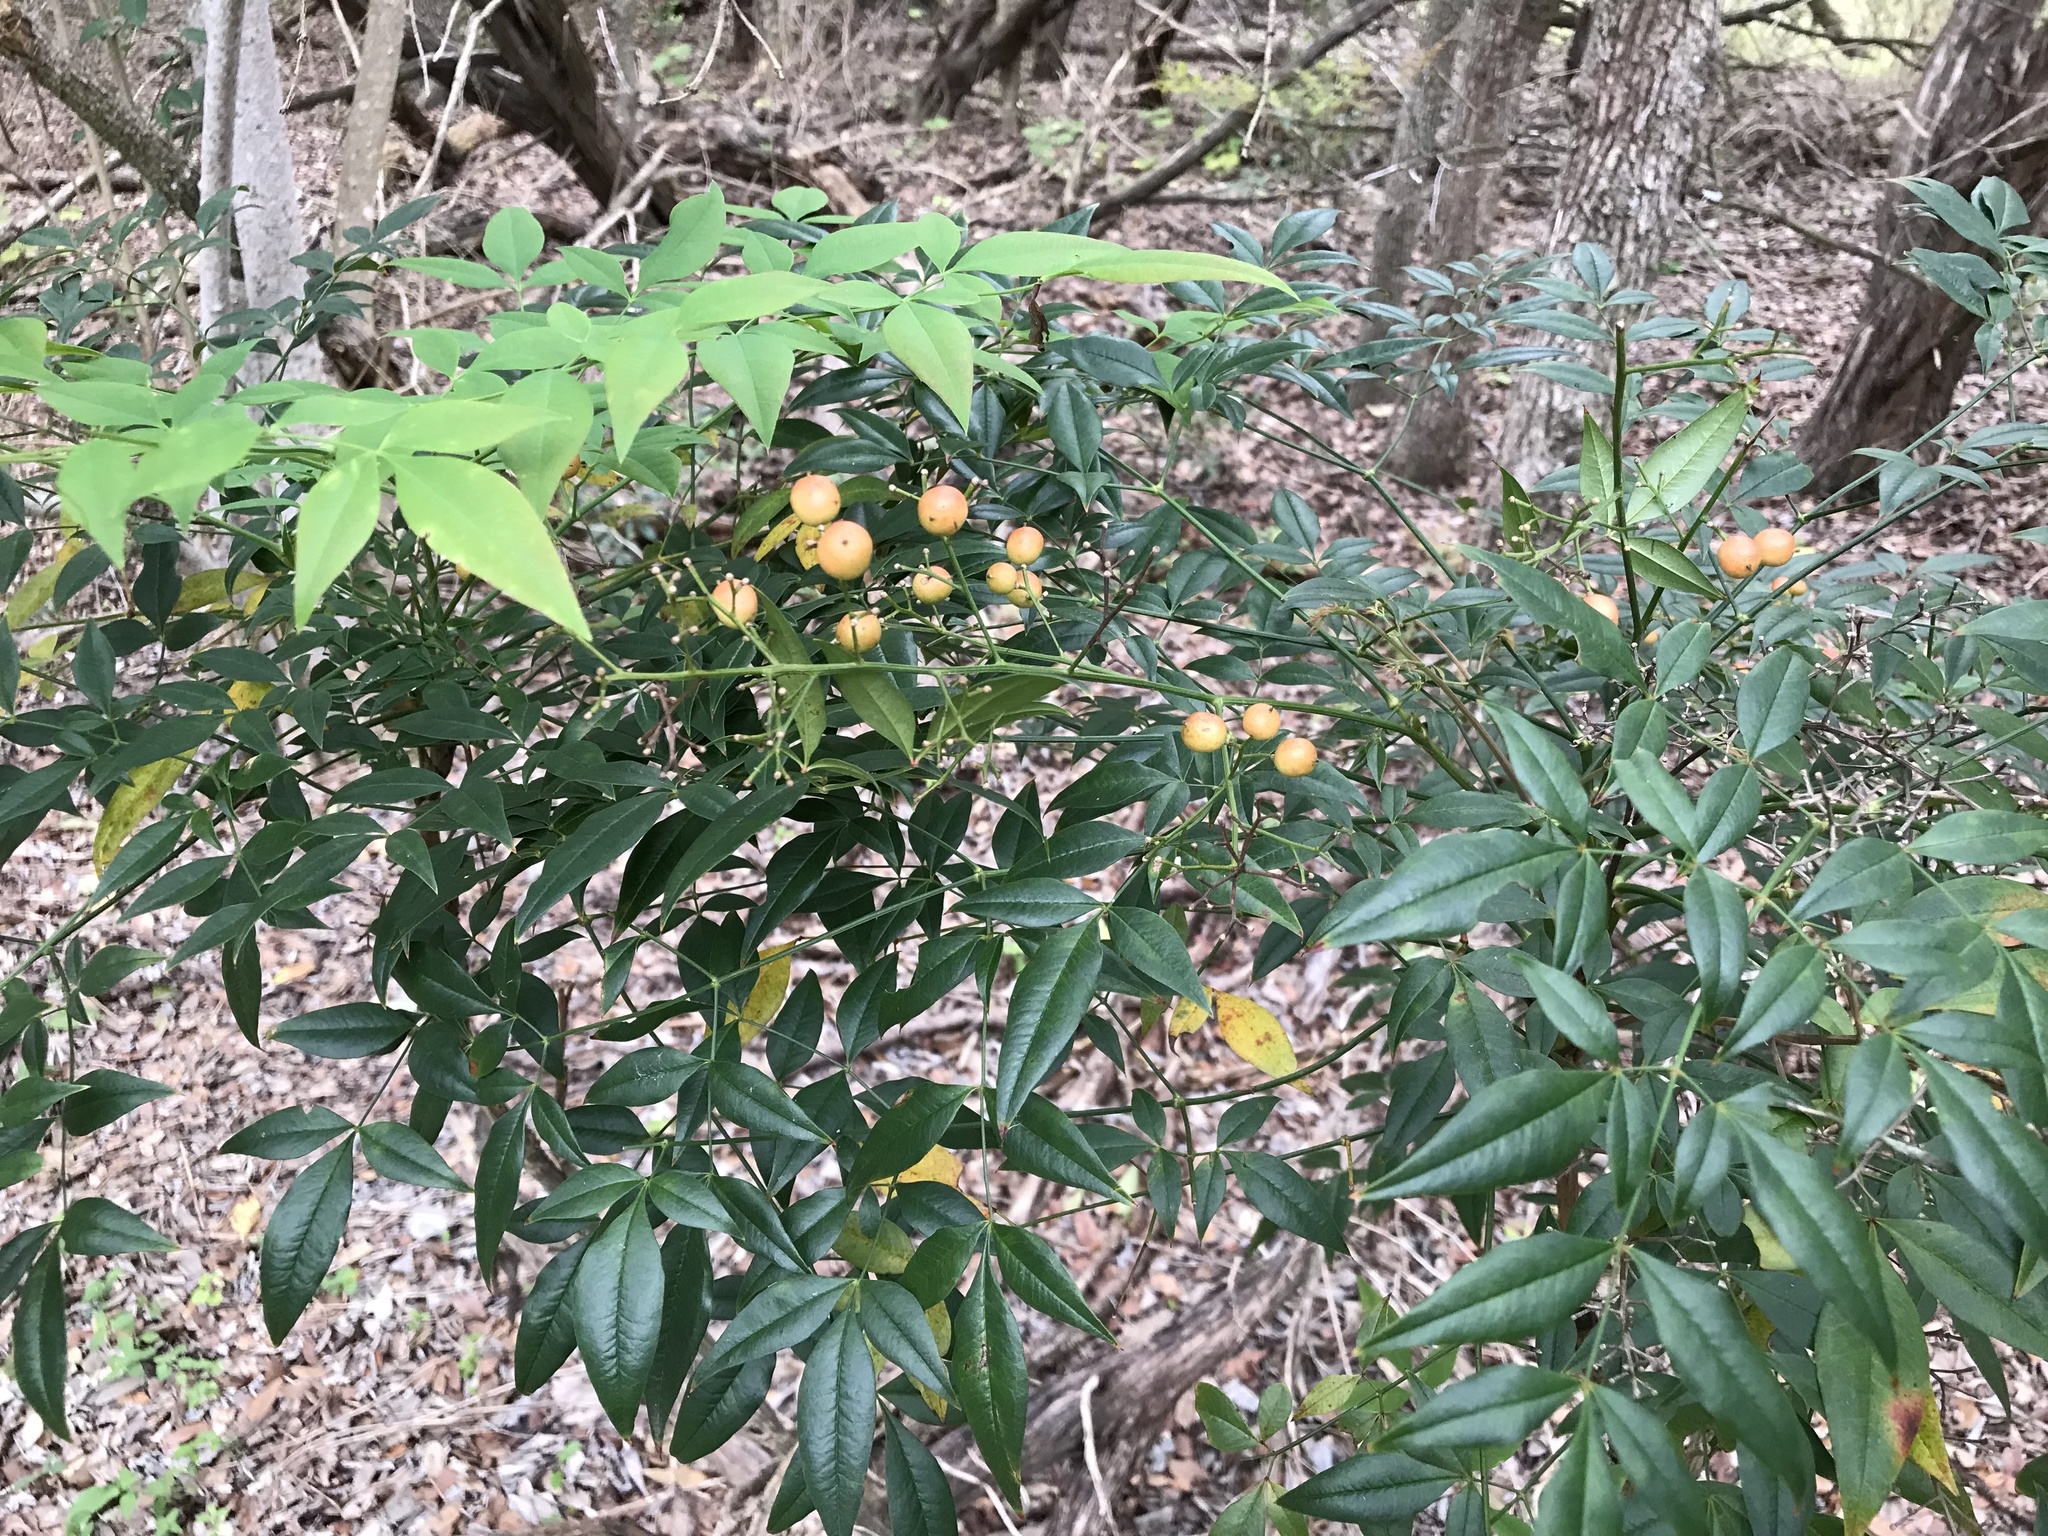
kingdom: Plantae
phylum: Tracheophyta
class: Magnoliopsida
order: Ranunculales
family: Berberidaceae
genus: Nandina
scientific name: Nandina domestica
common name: Sacred bamboo
